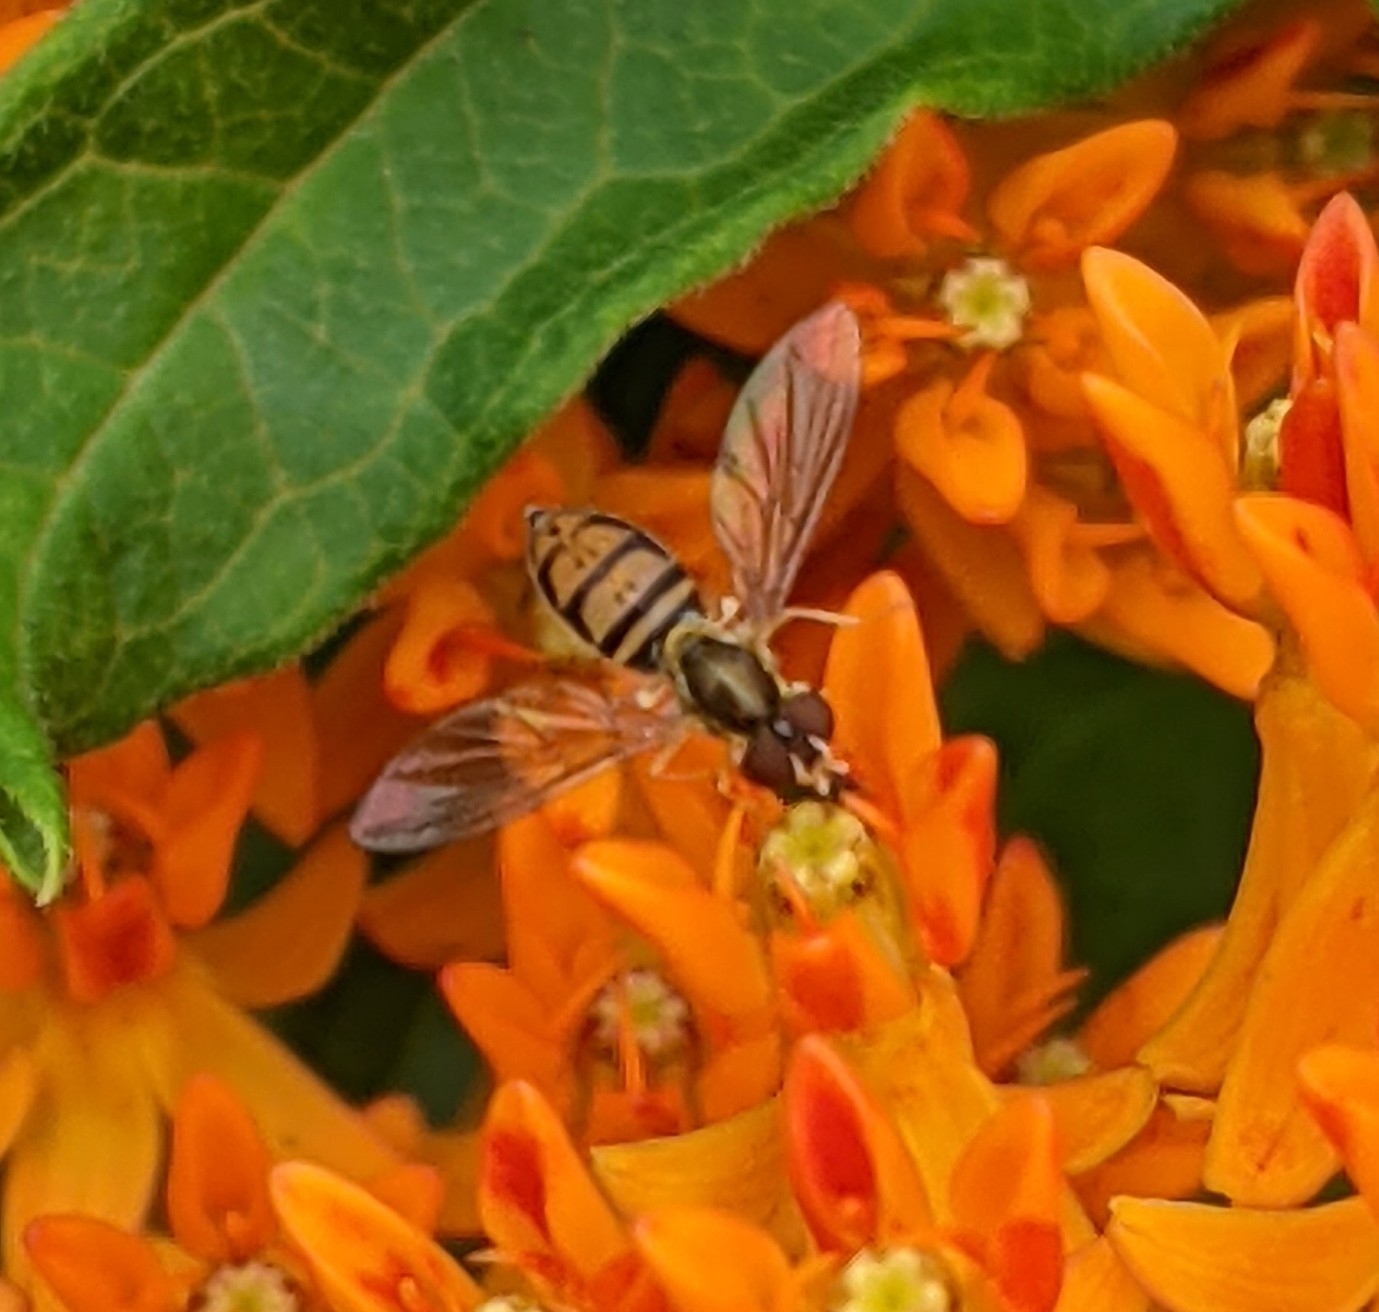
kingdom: Animalia
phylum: Arthropoda
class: Insecta
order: Diptera
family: Syrphidae
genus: Toxomerus
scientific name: Toxomerus marginatus
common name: Syrphid fly
